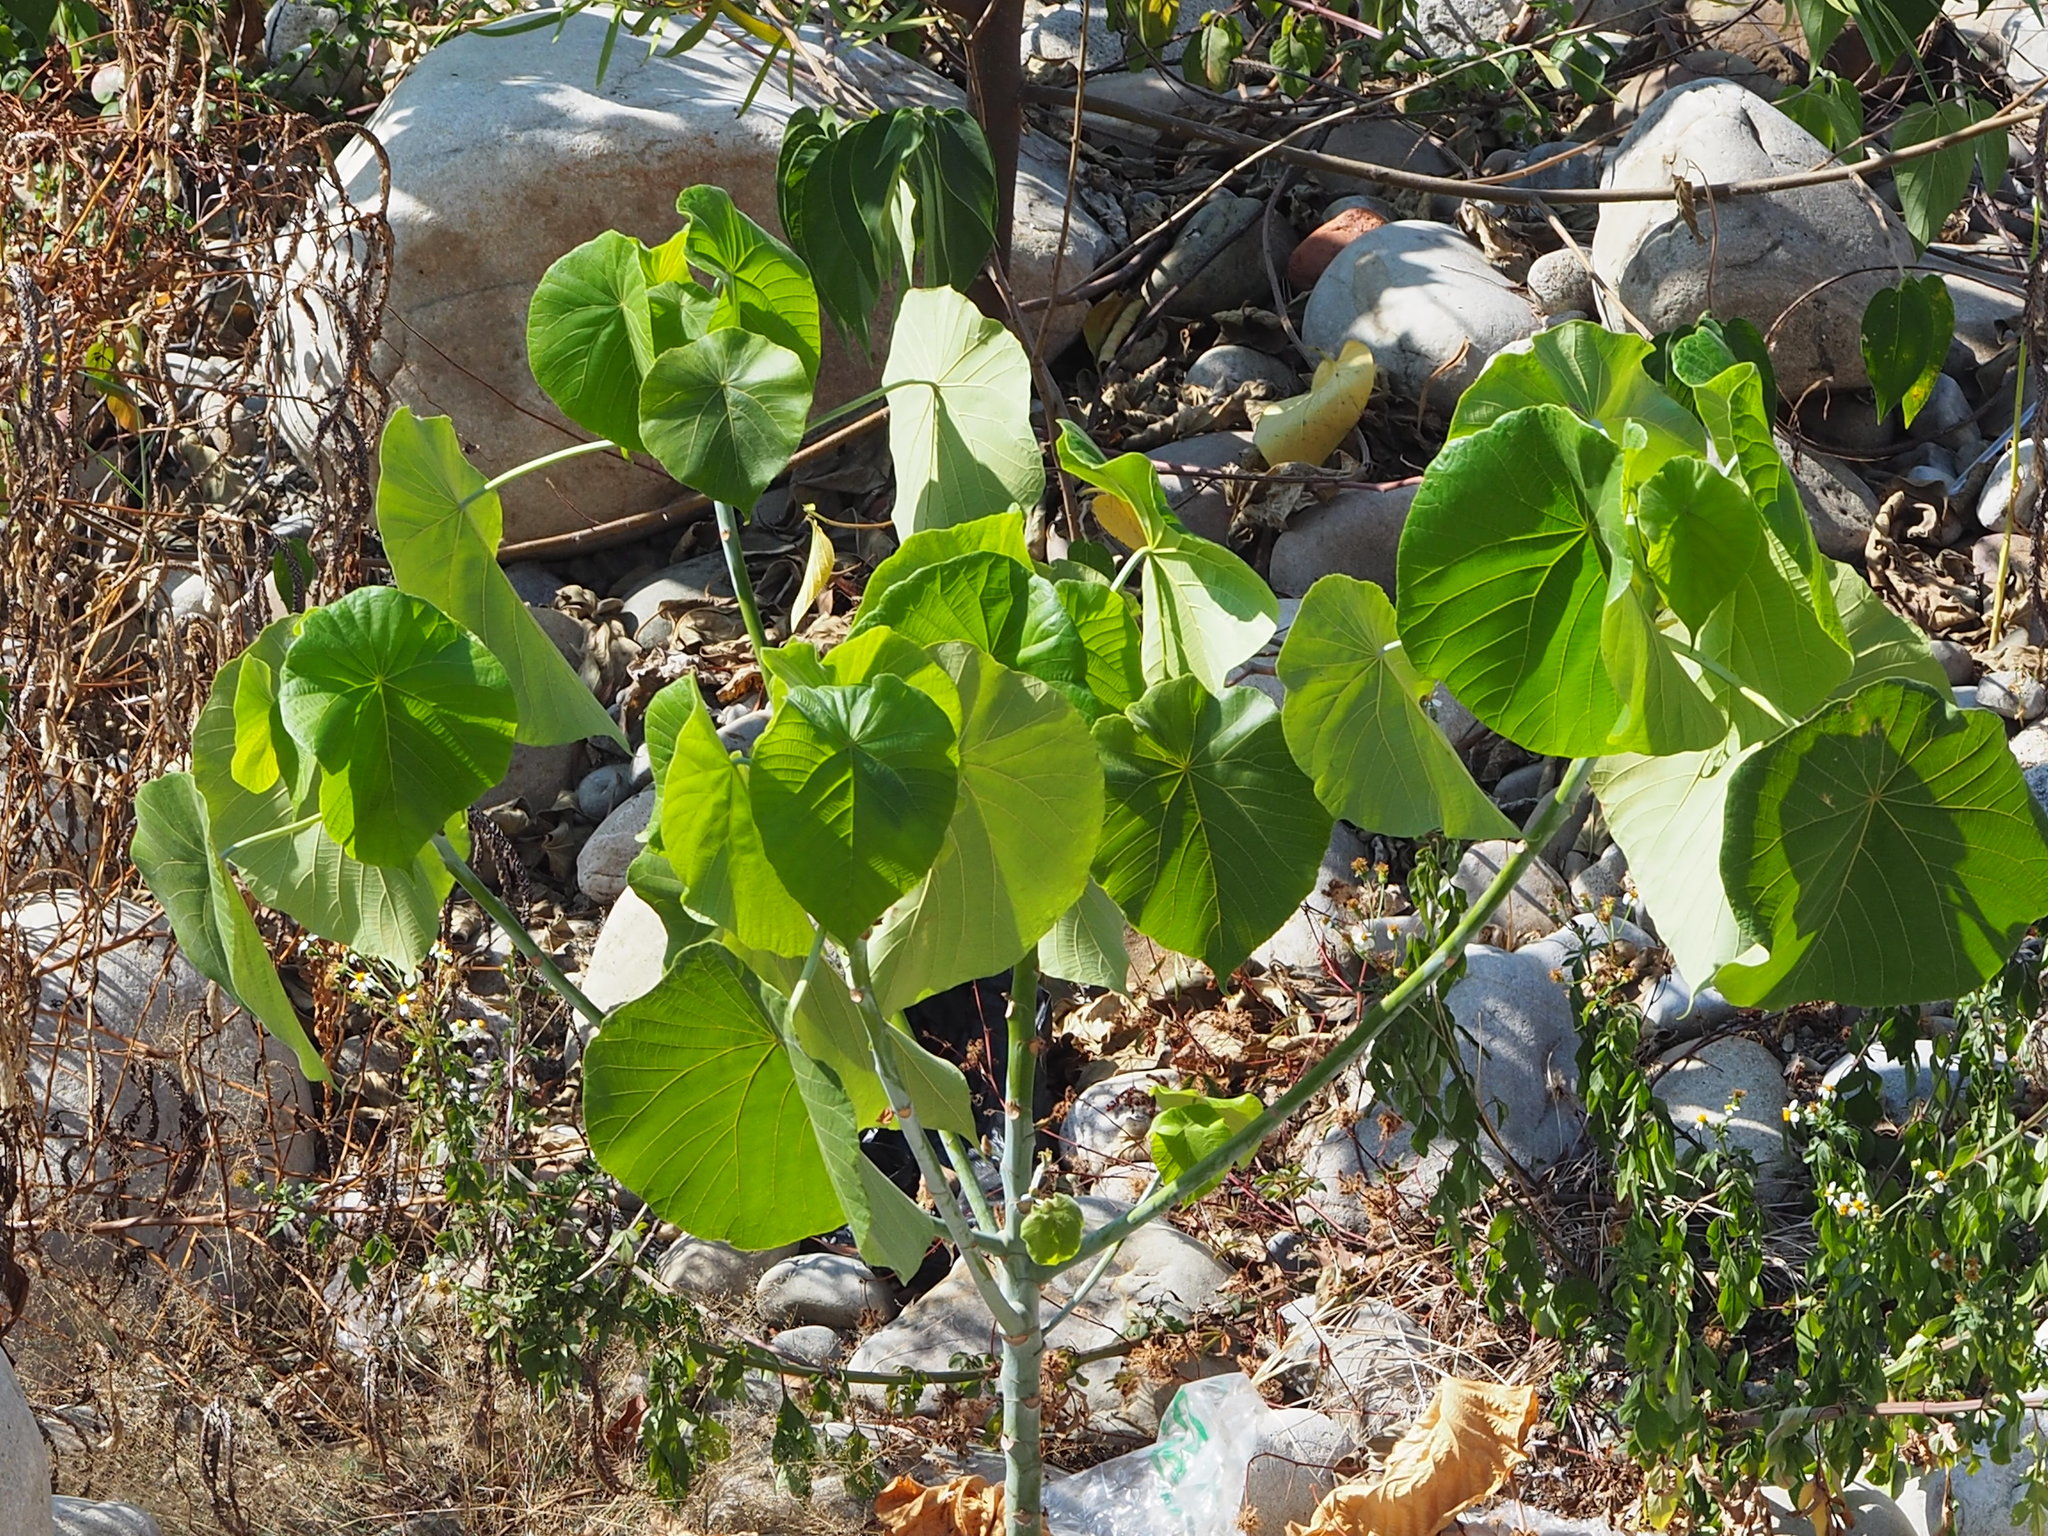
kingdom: Plantae
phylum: Tracheophyta
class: Magnoliopsida
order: Malpighiales
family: Euphorbiaceae
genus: Macaranga
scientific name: Macaranga tanarius
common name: Parasol leaf tree
